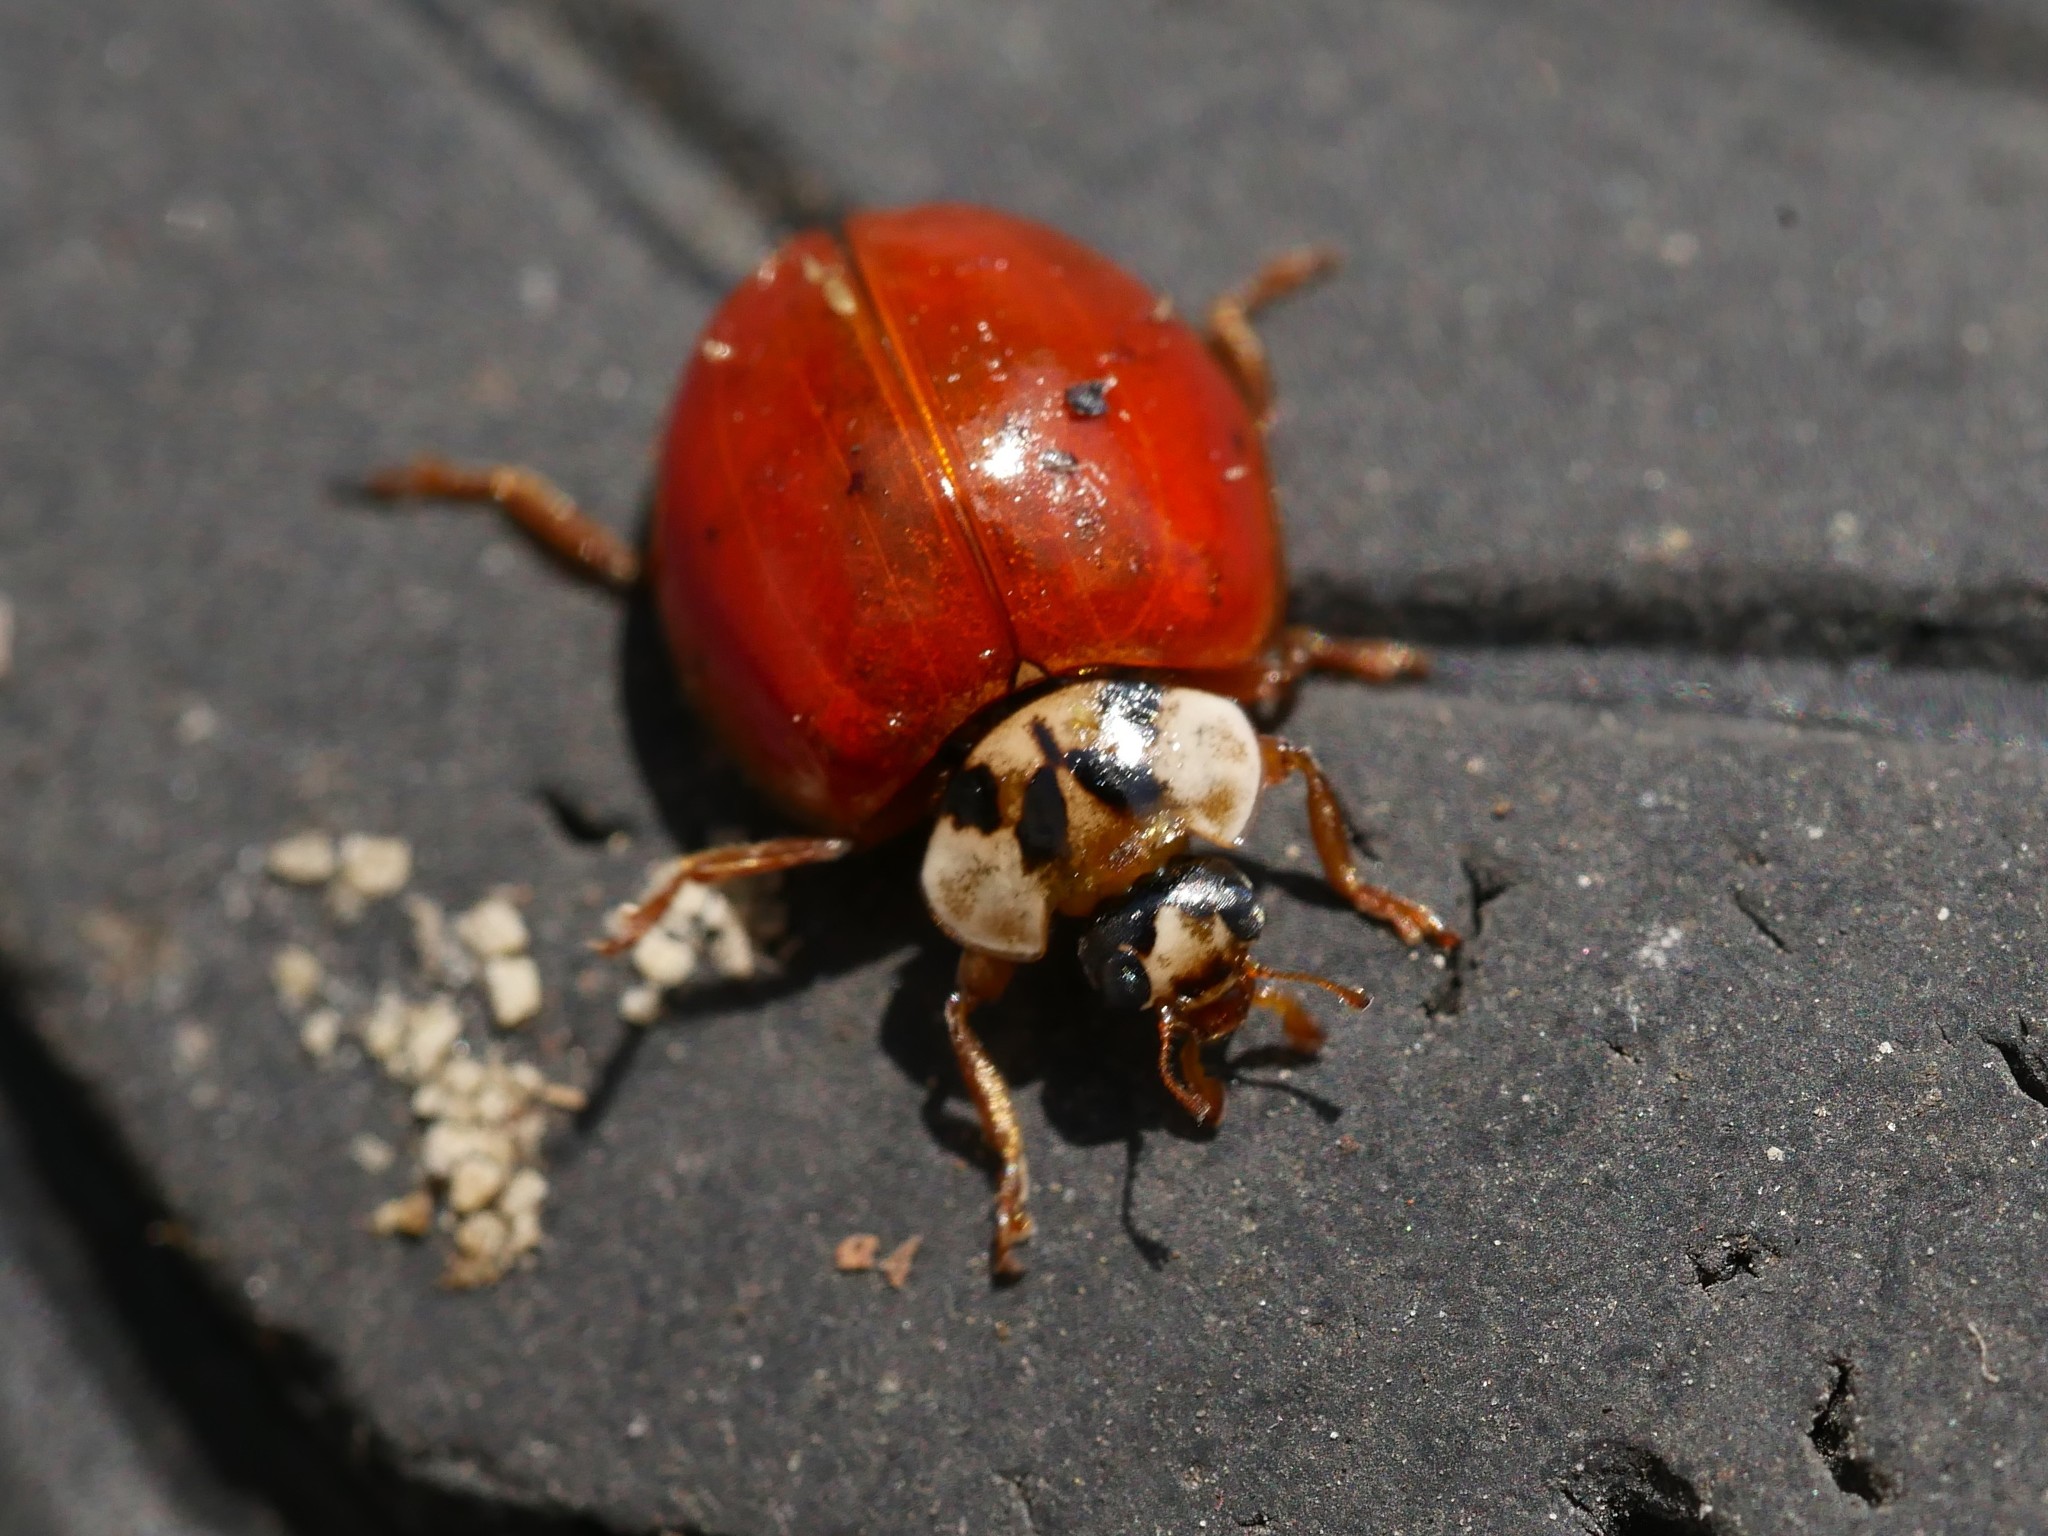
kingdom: Animalia
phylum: Arthropoda
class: Insecta
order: Coleoptera
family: Coccinellidae
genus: Harmonia
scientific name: Harmonia axyridis
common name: Harlequin ladybird
